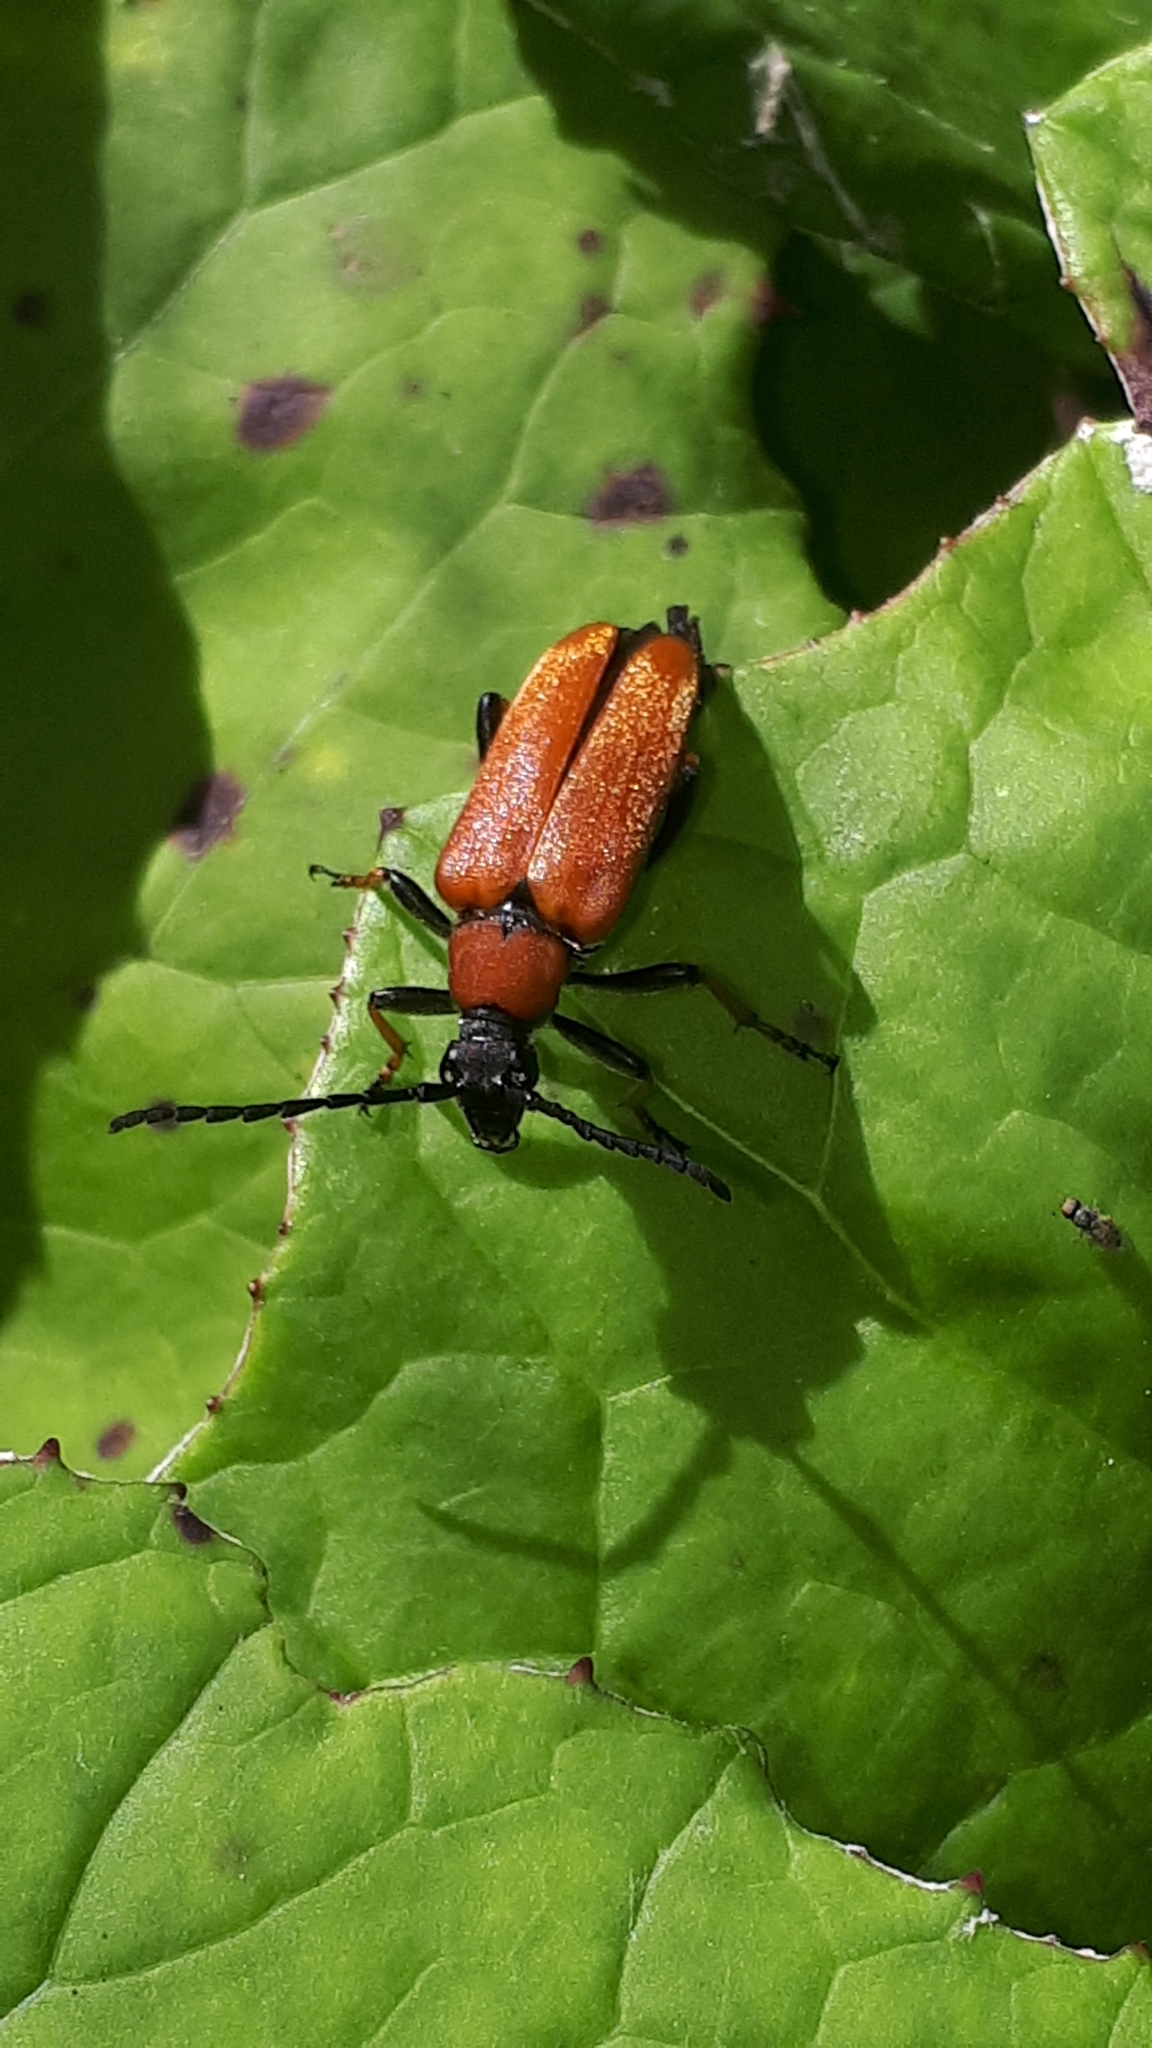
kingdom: Animalia
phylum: Arthropoda
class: Insecta
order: Coleoptera
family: Cerambycidae
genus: Stictoleptura
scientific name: Stictoleptura rubra
